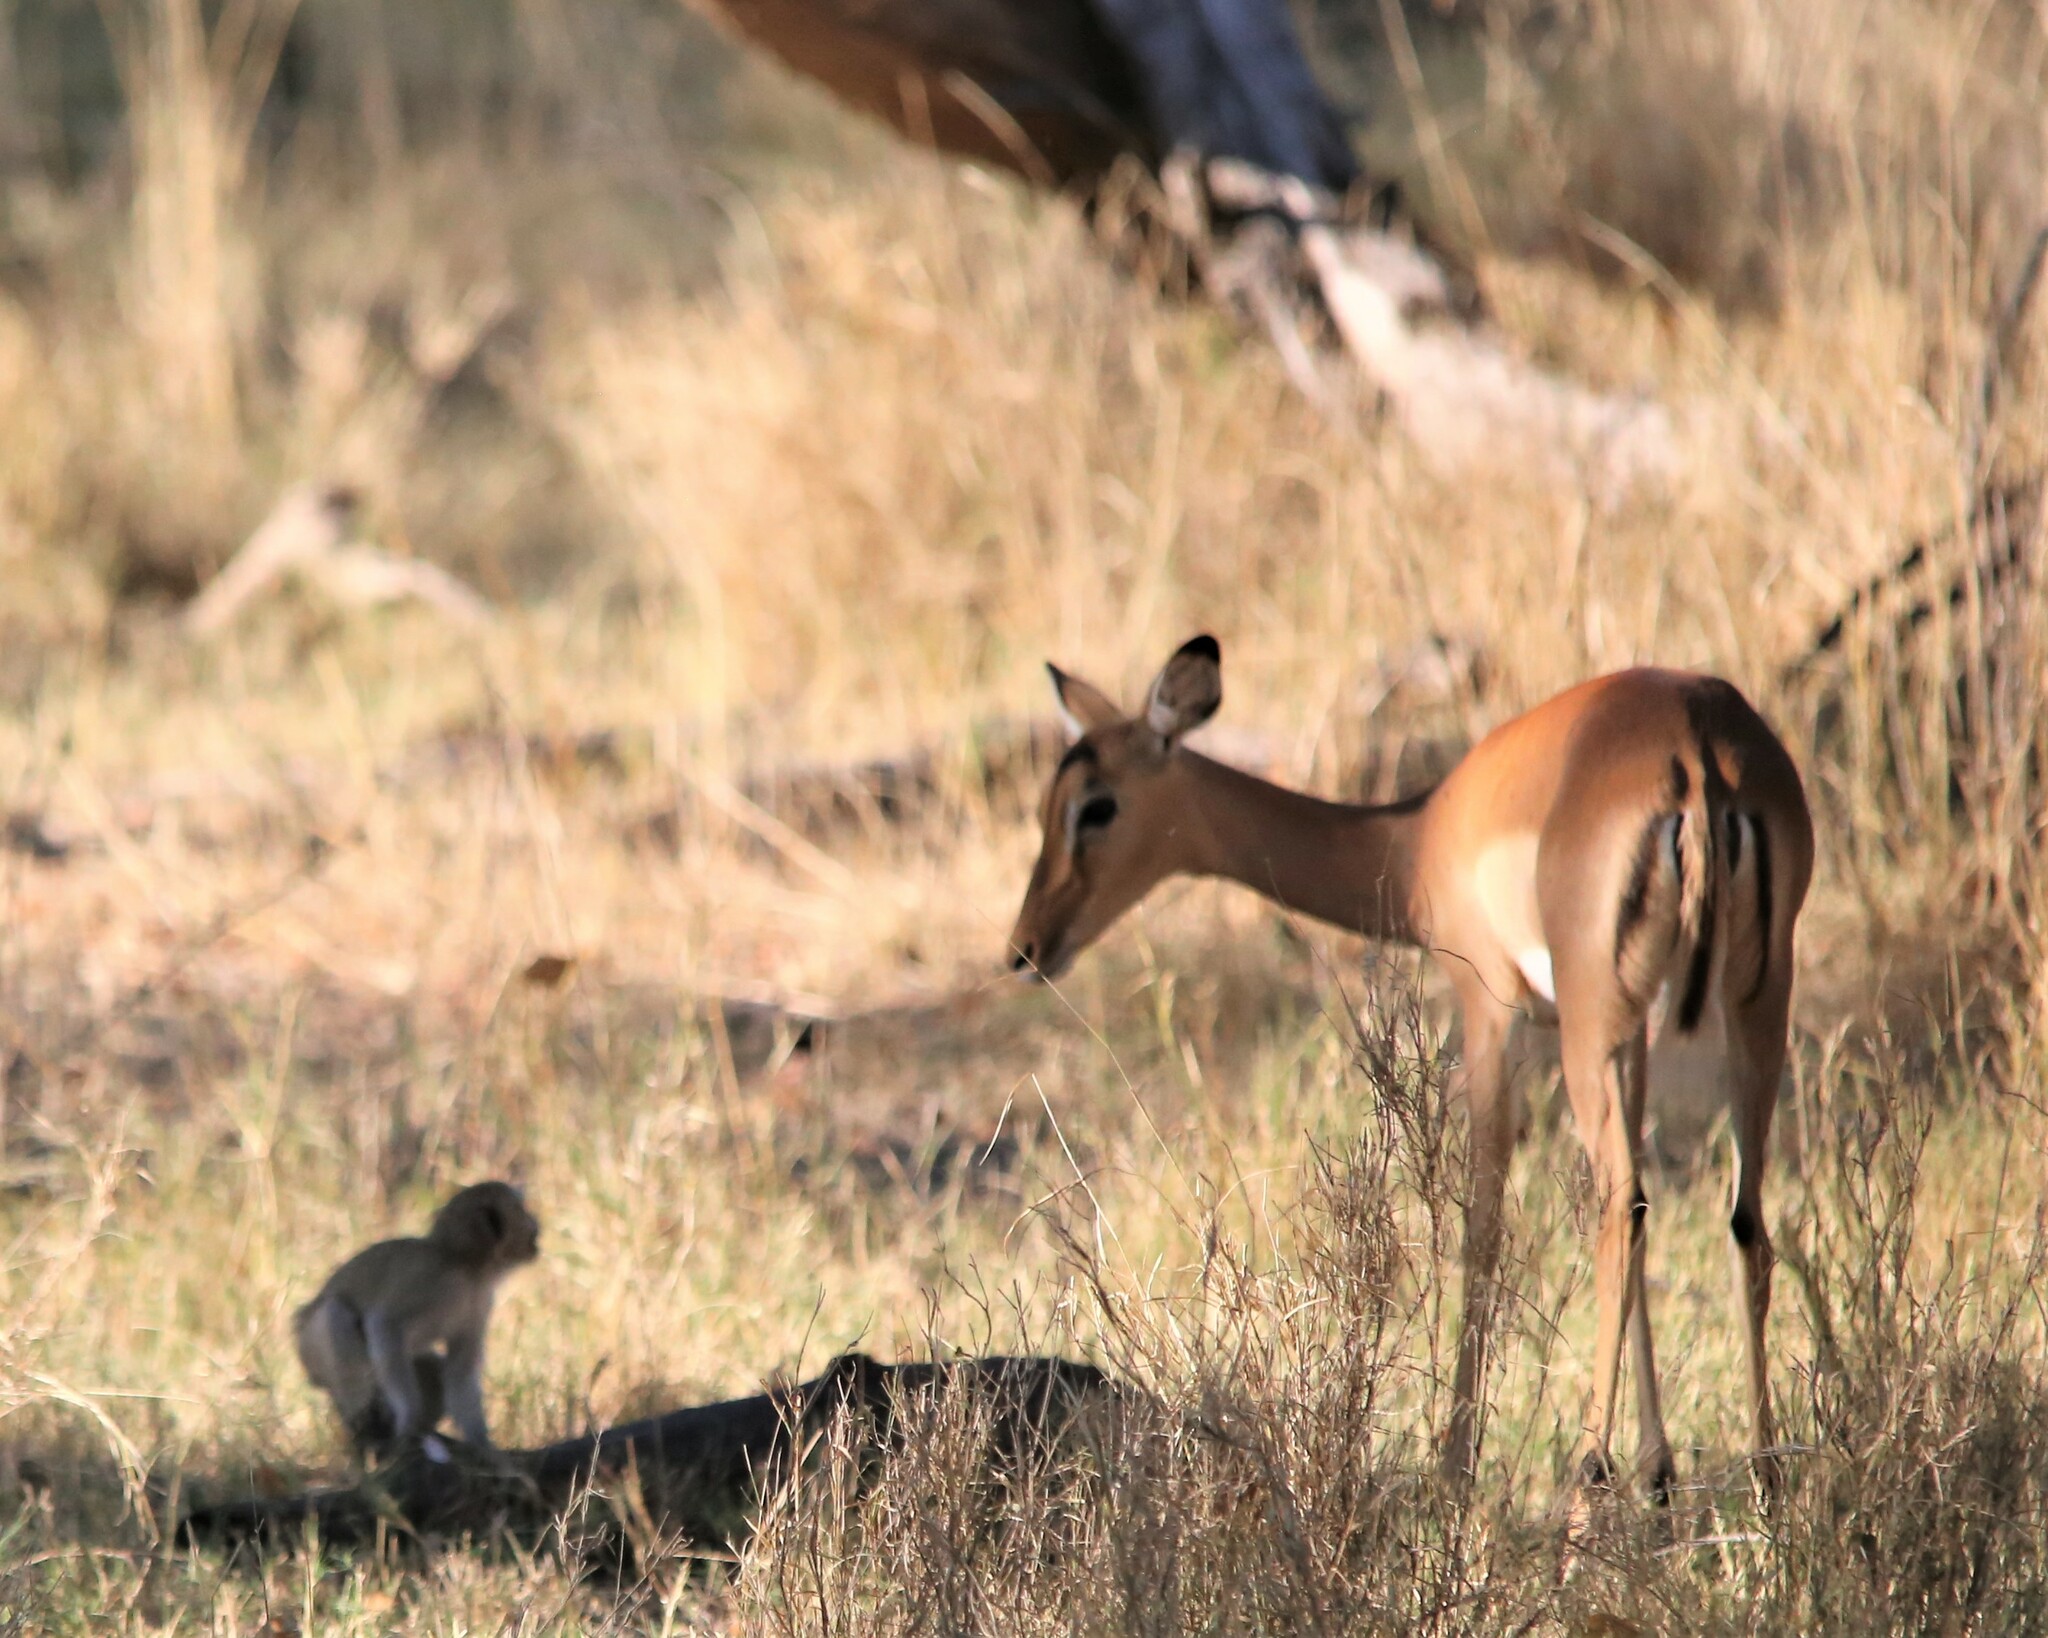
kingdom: Animalia
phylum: Chordata
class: Mammalia
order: Artiodactyla
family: Bovidae
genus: Aepyceros
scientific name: Aepyceros melampus
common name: Impala
